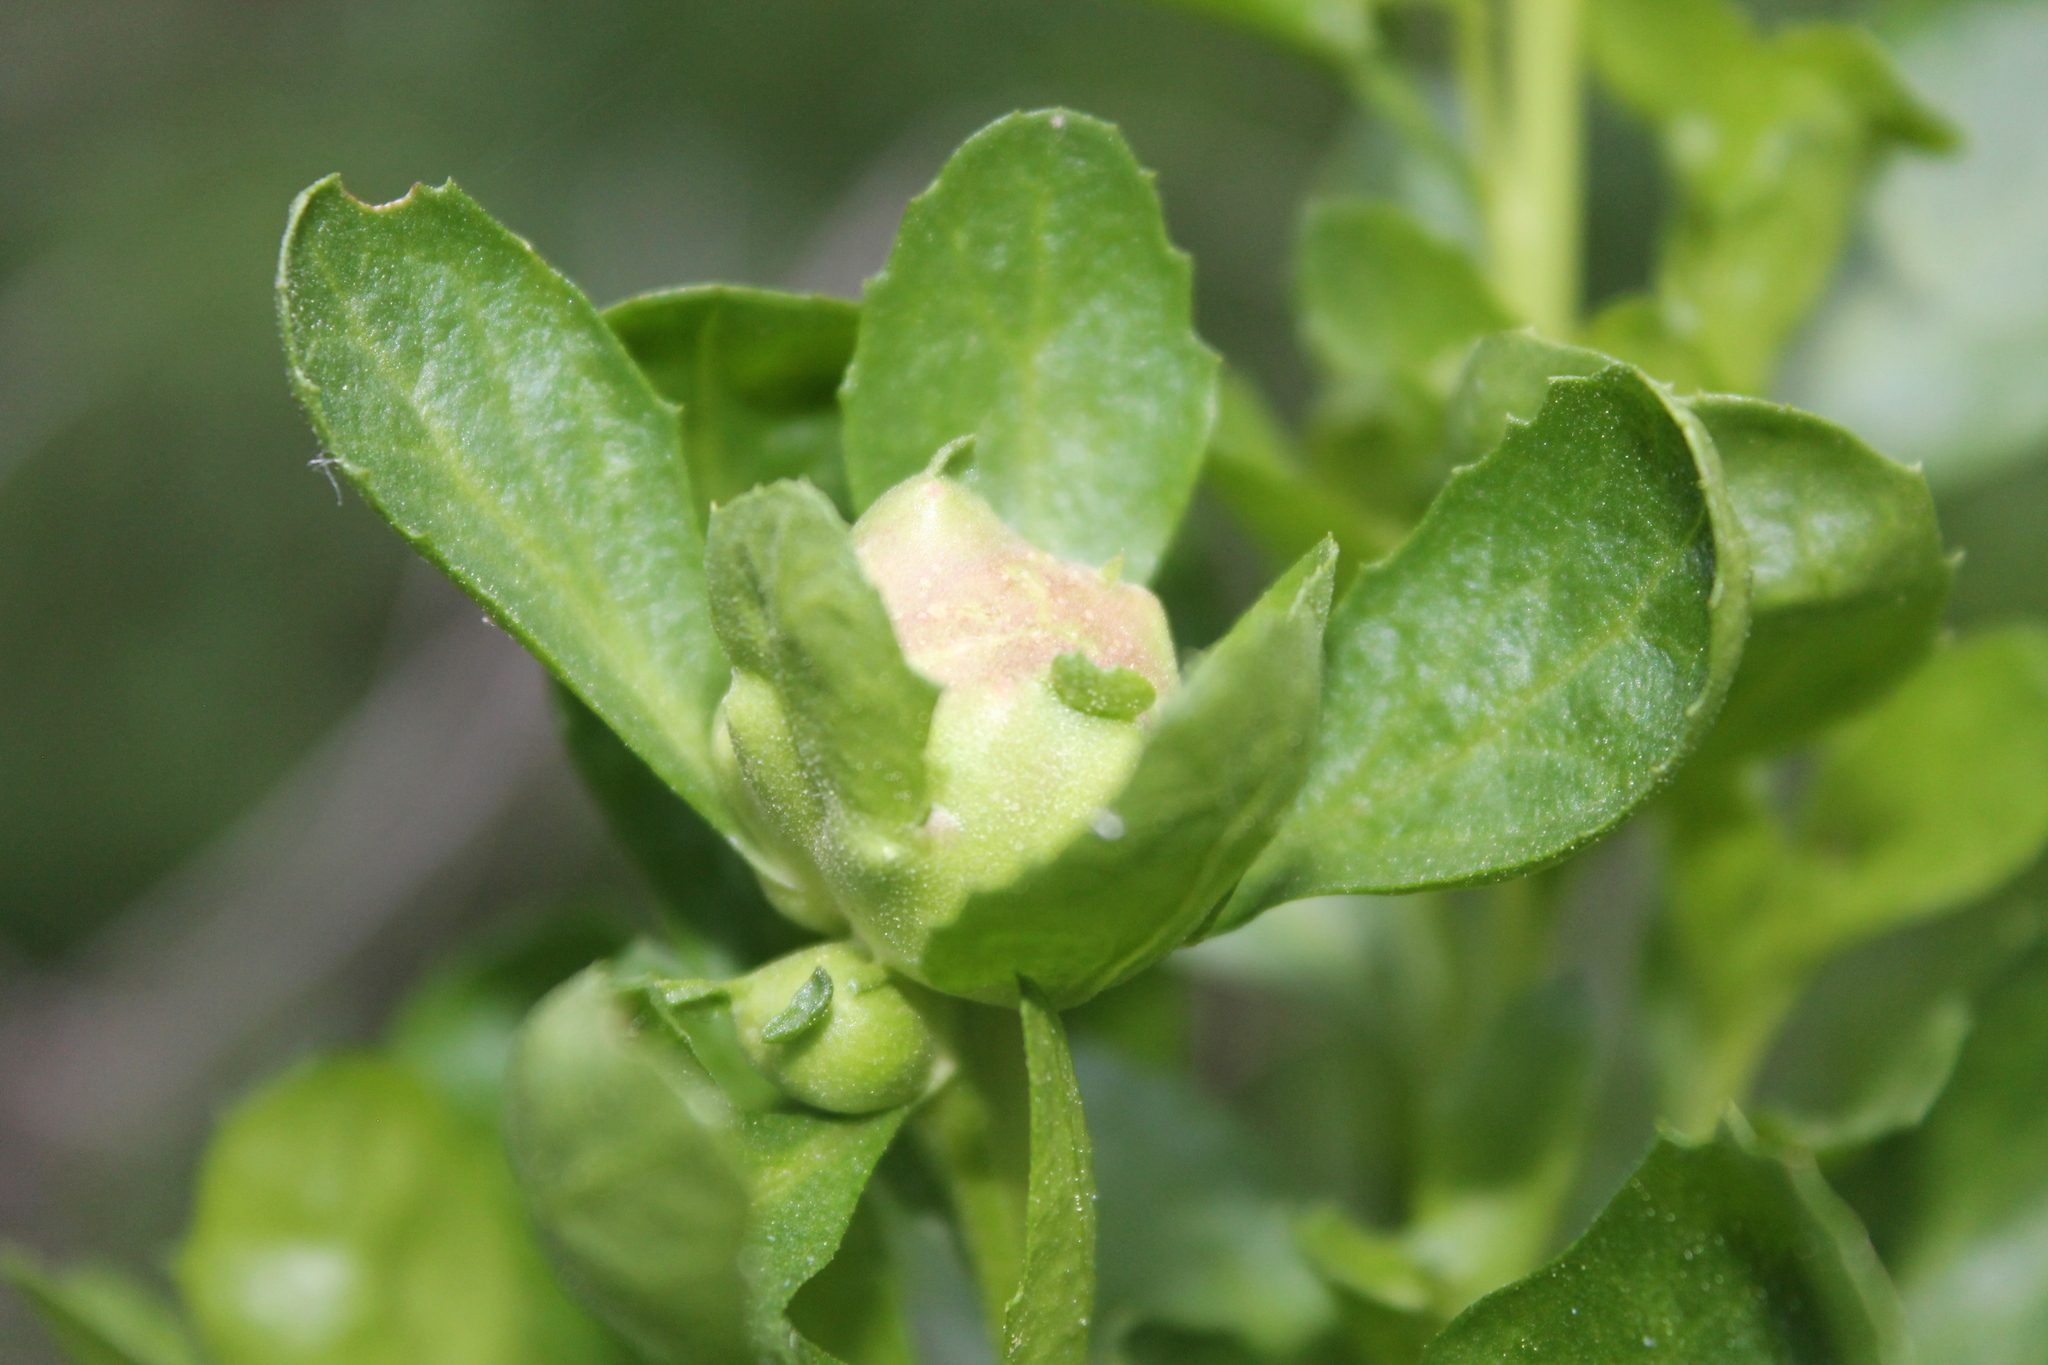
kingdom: Animalia
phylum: Arthropoda
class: Insecta
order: Diptera
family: Cecidomyiidae
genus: Rhopalomyia
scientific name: Rhopalomyia californica
